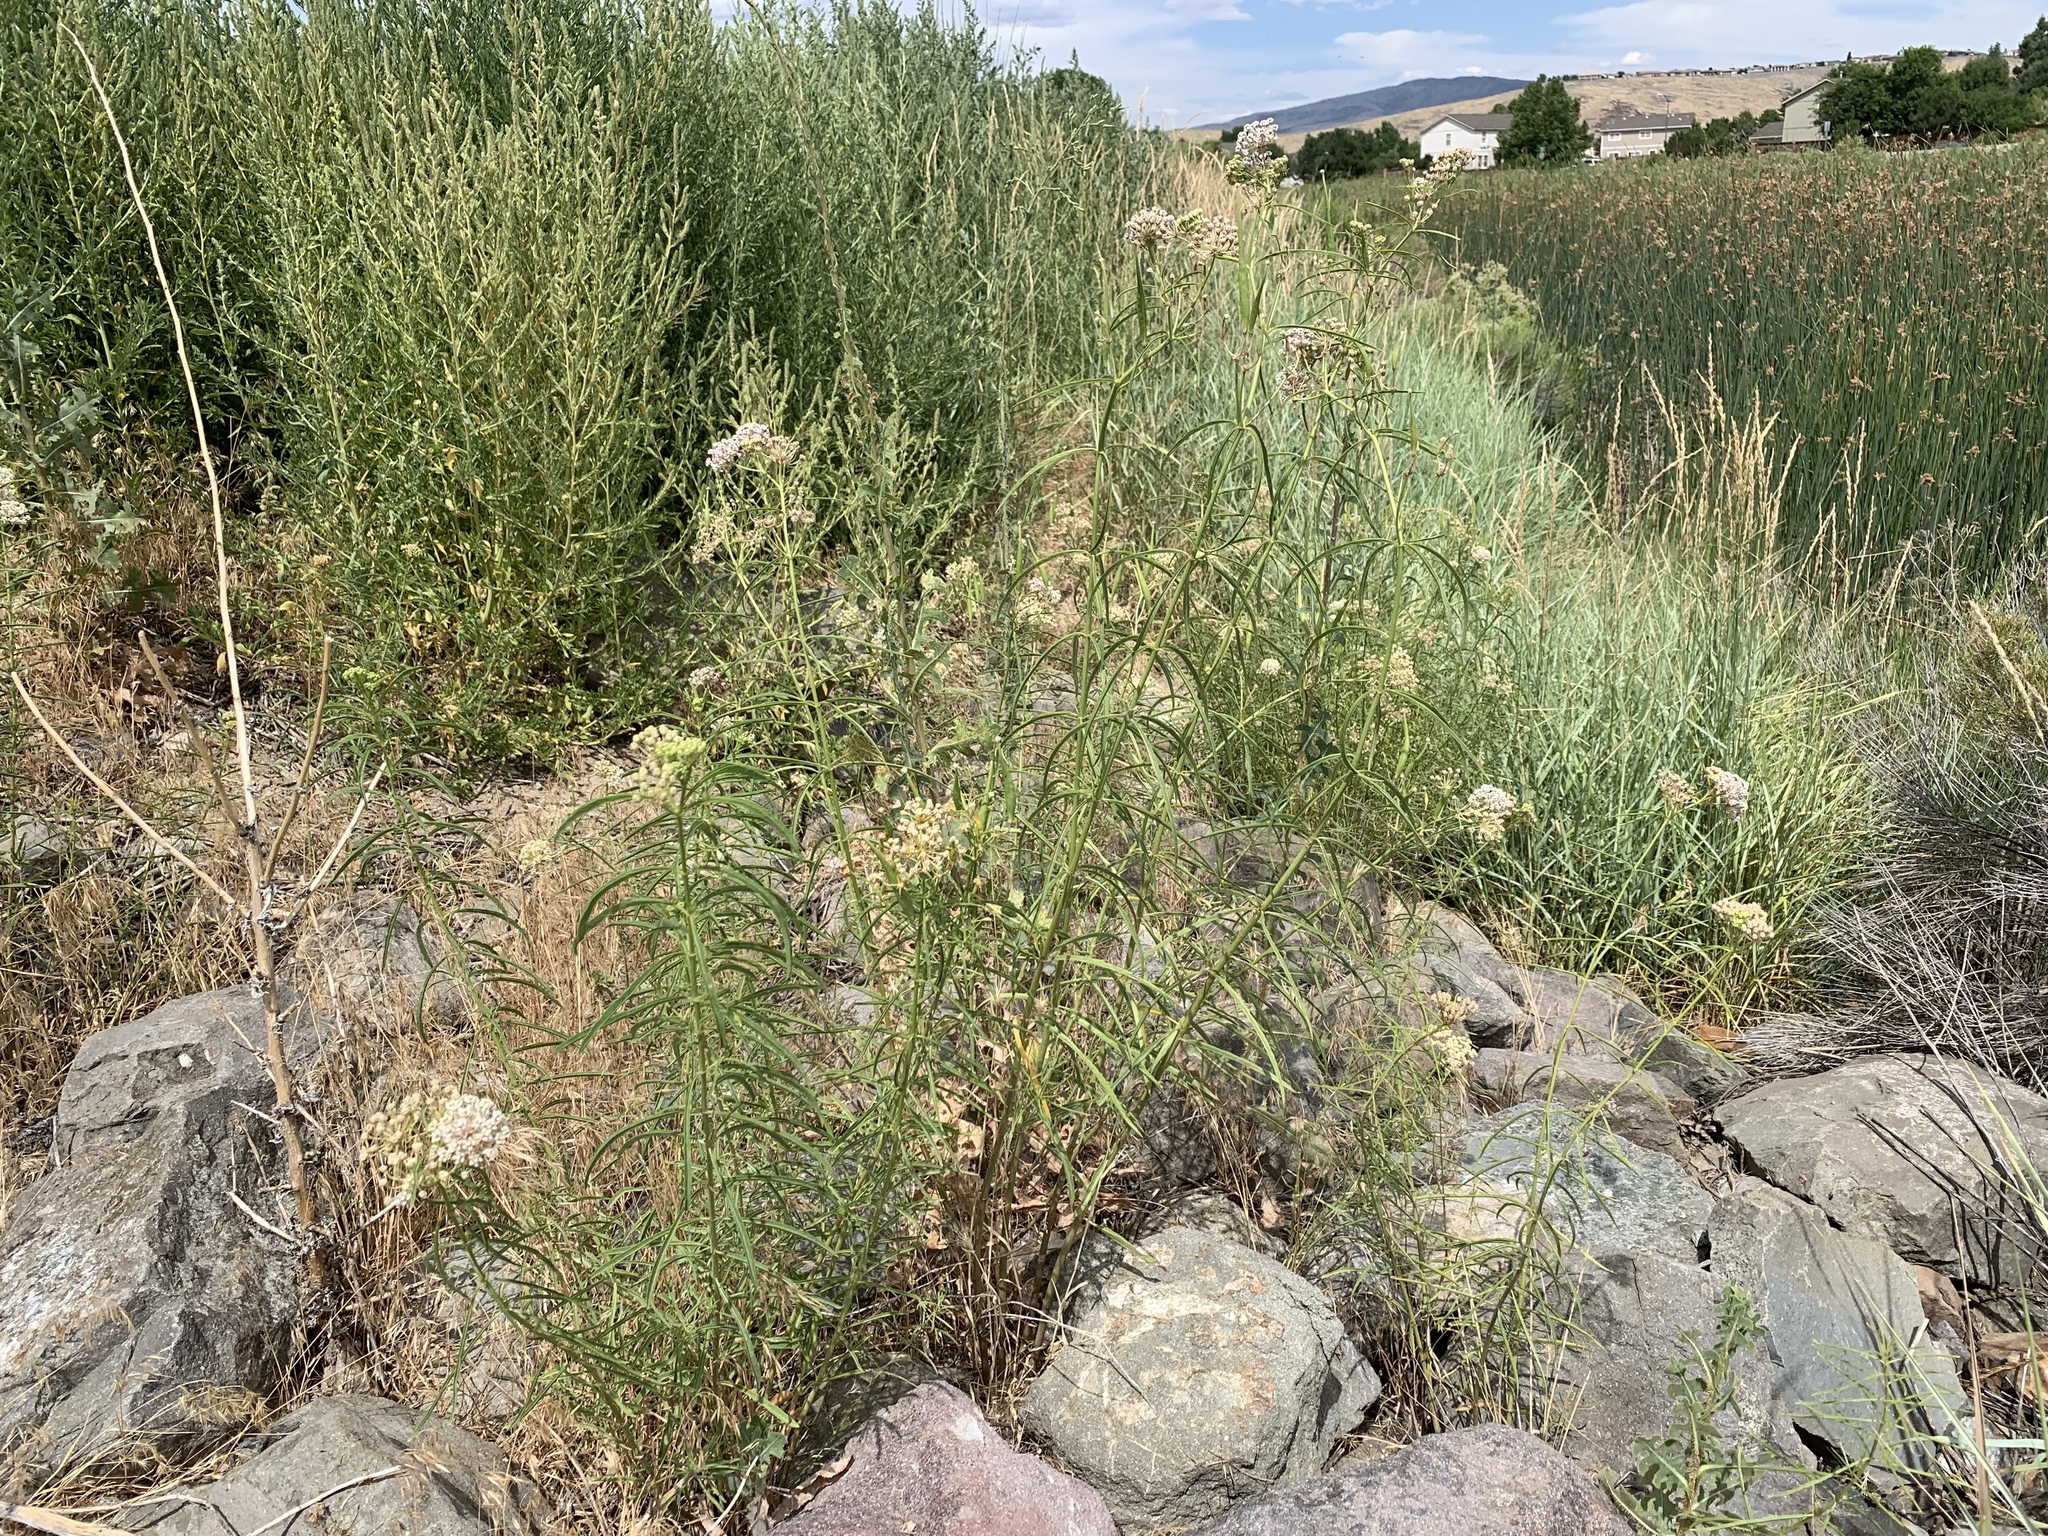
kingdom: Plantae
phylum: Tracheophyta
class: Magnoliopsida
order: Gentianales
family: Apocynaceae
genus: Asclepias
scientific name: Asclepias fascicularis
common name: Mexican milkweed
